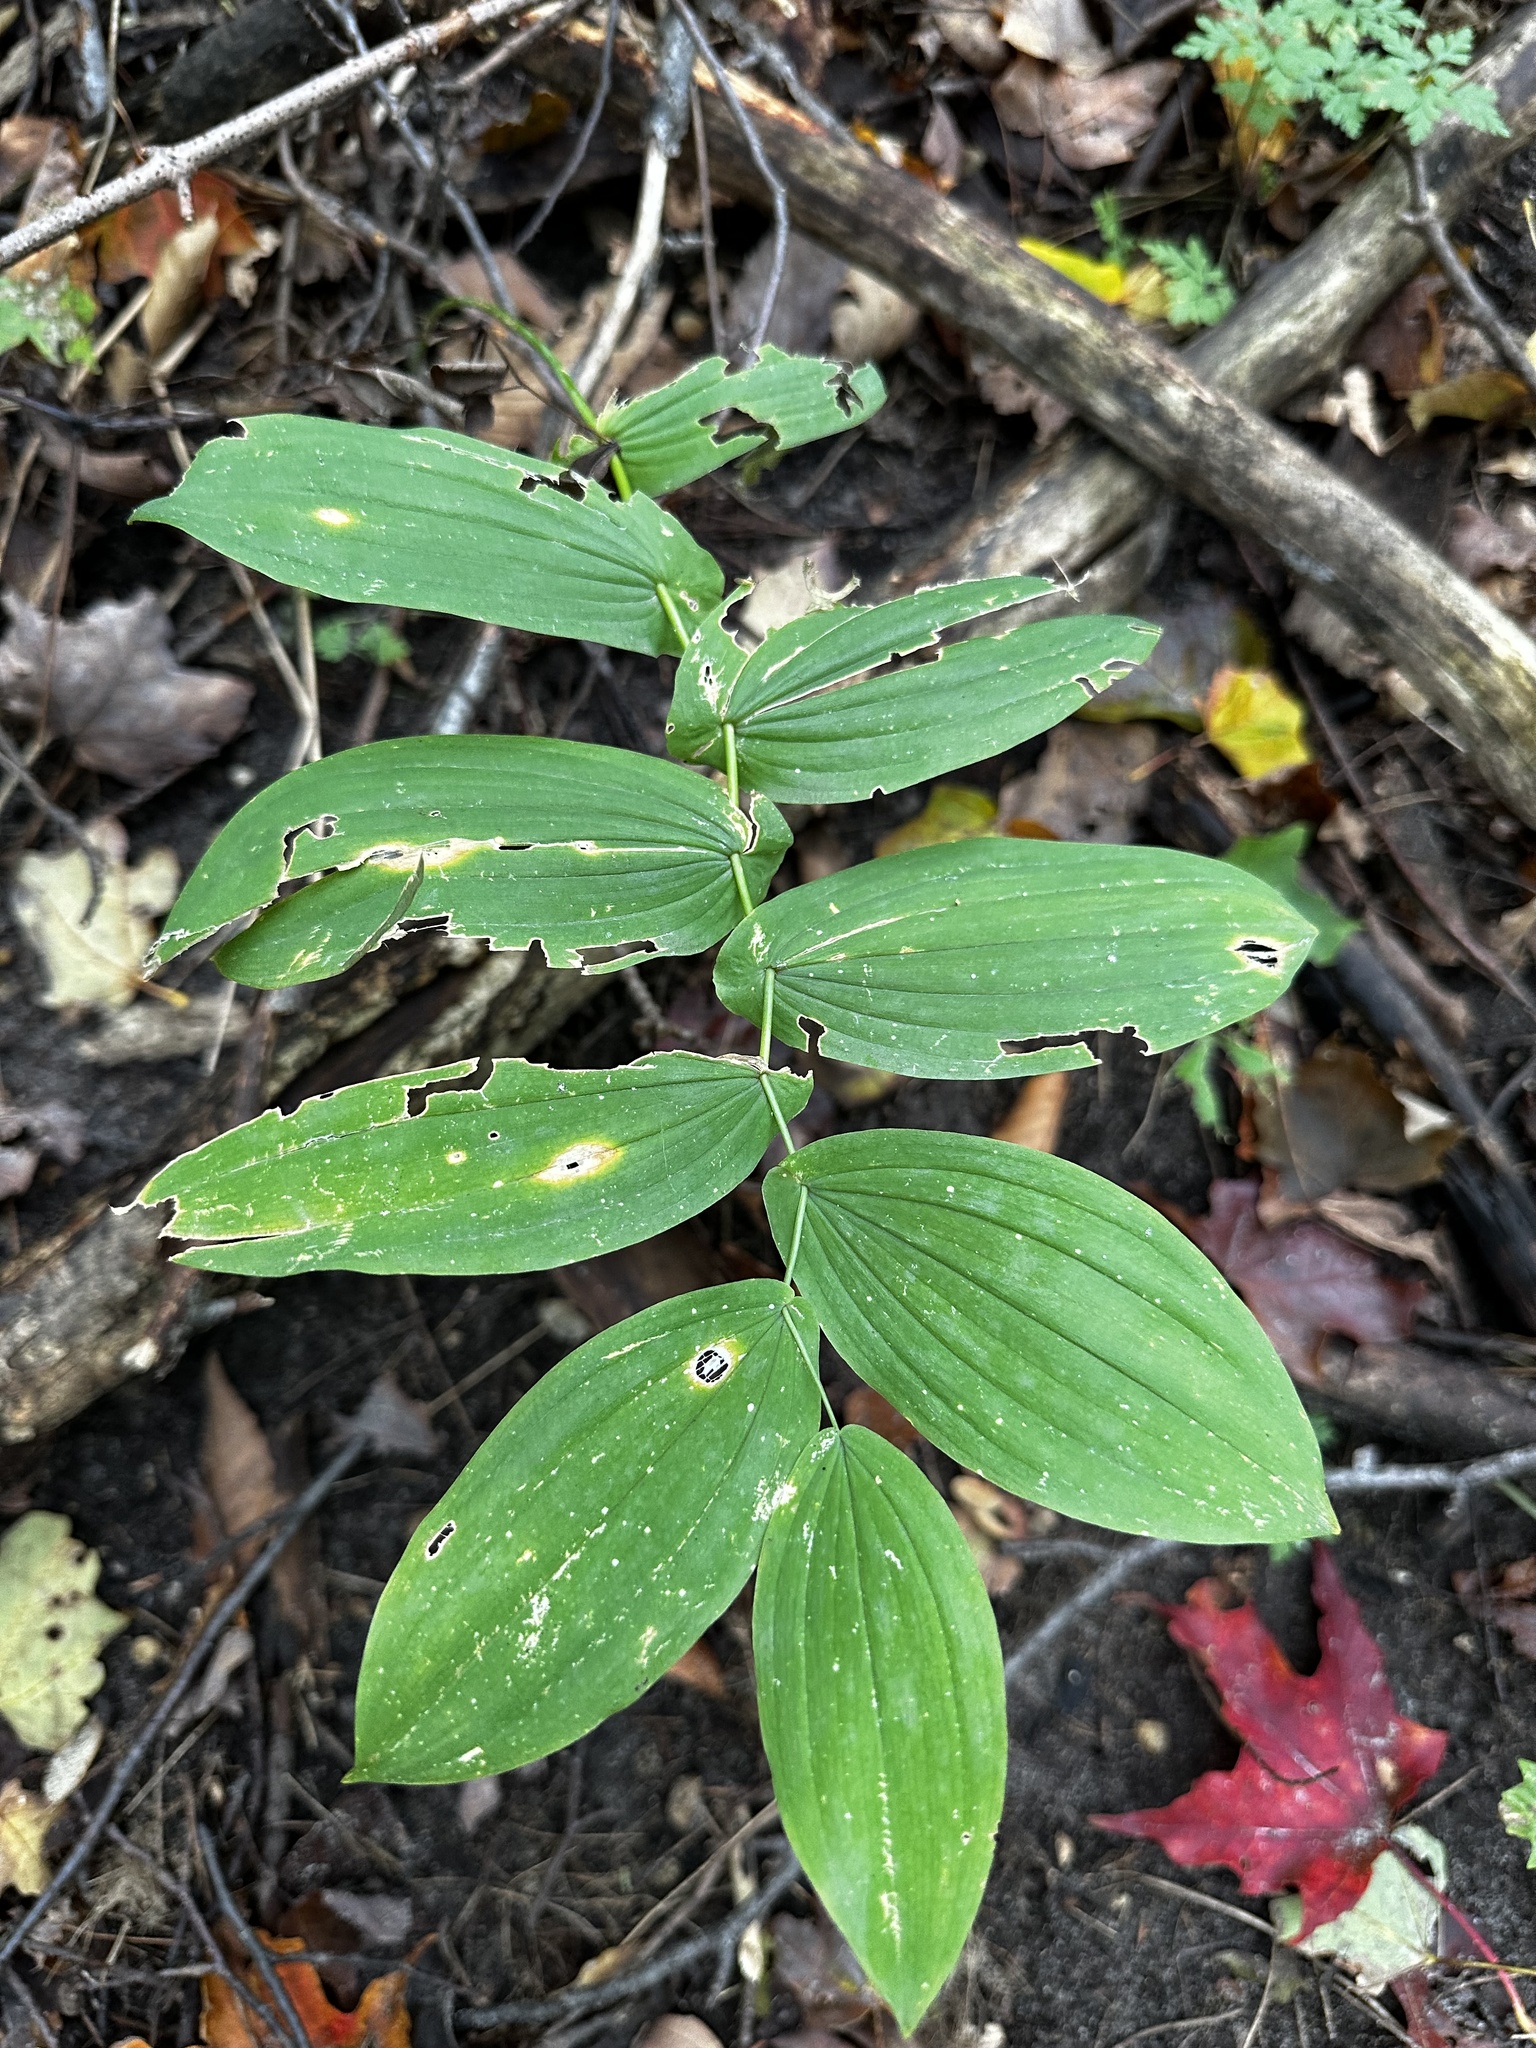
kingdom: Plantae
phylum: Tracheophyta
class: Liliopsida
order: Liliales
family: Colchicaceae
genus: Uvularia
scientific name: Uvularia grandiflora
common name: Bellwort
